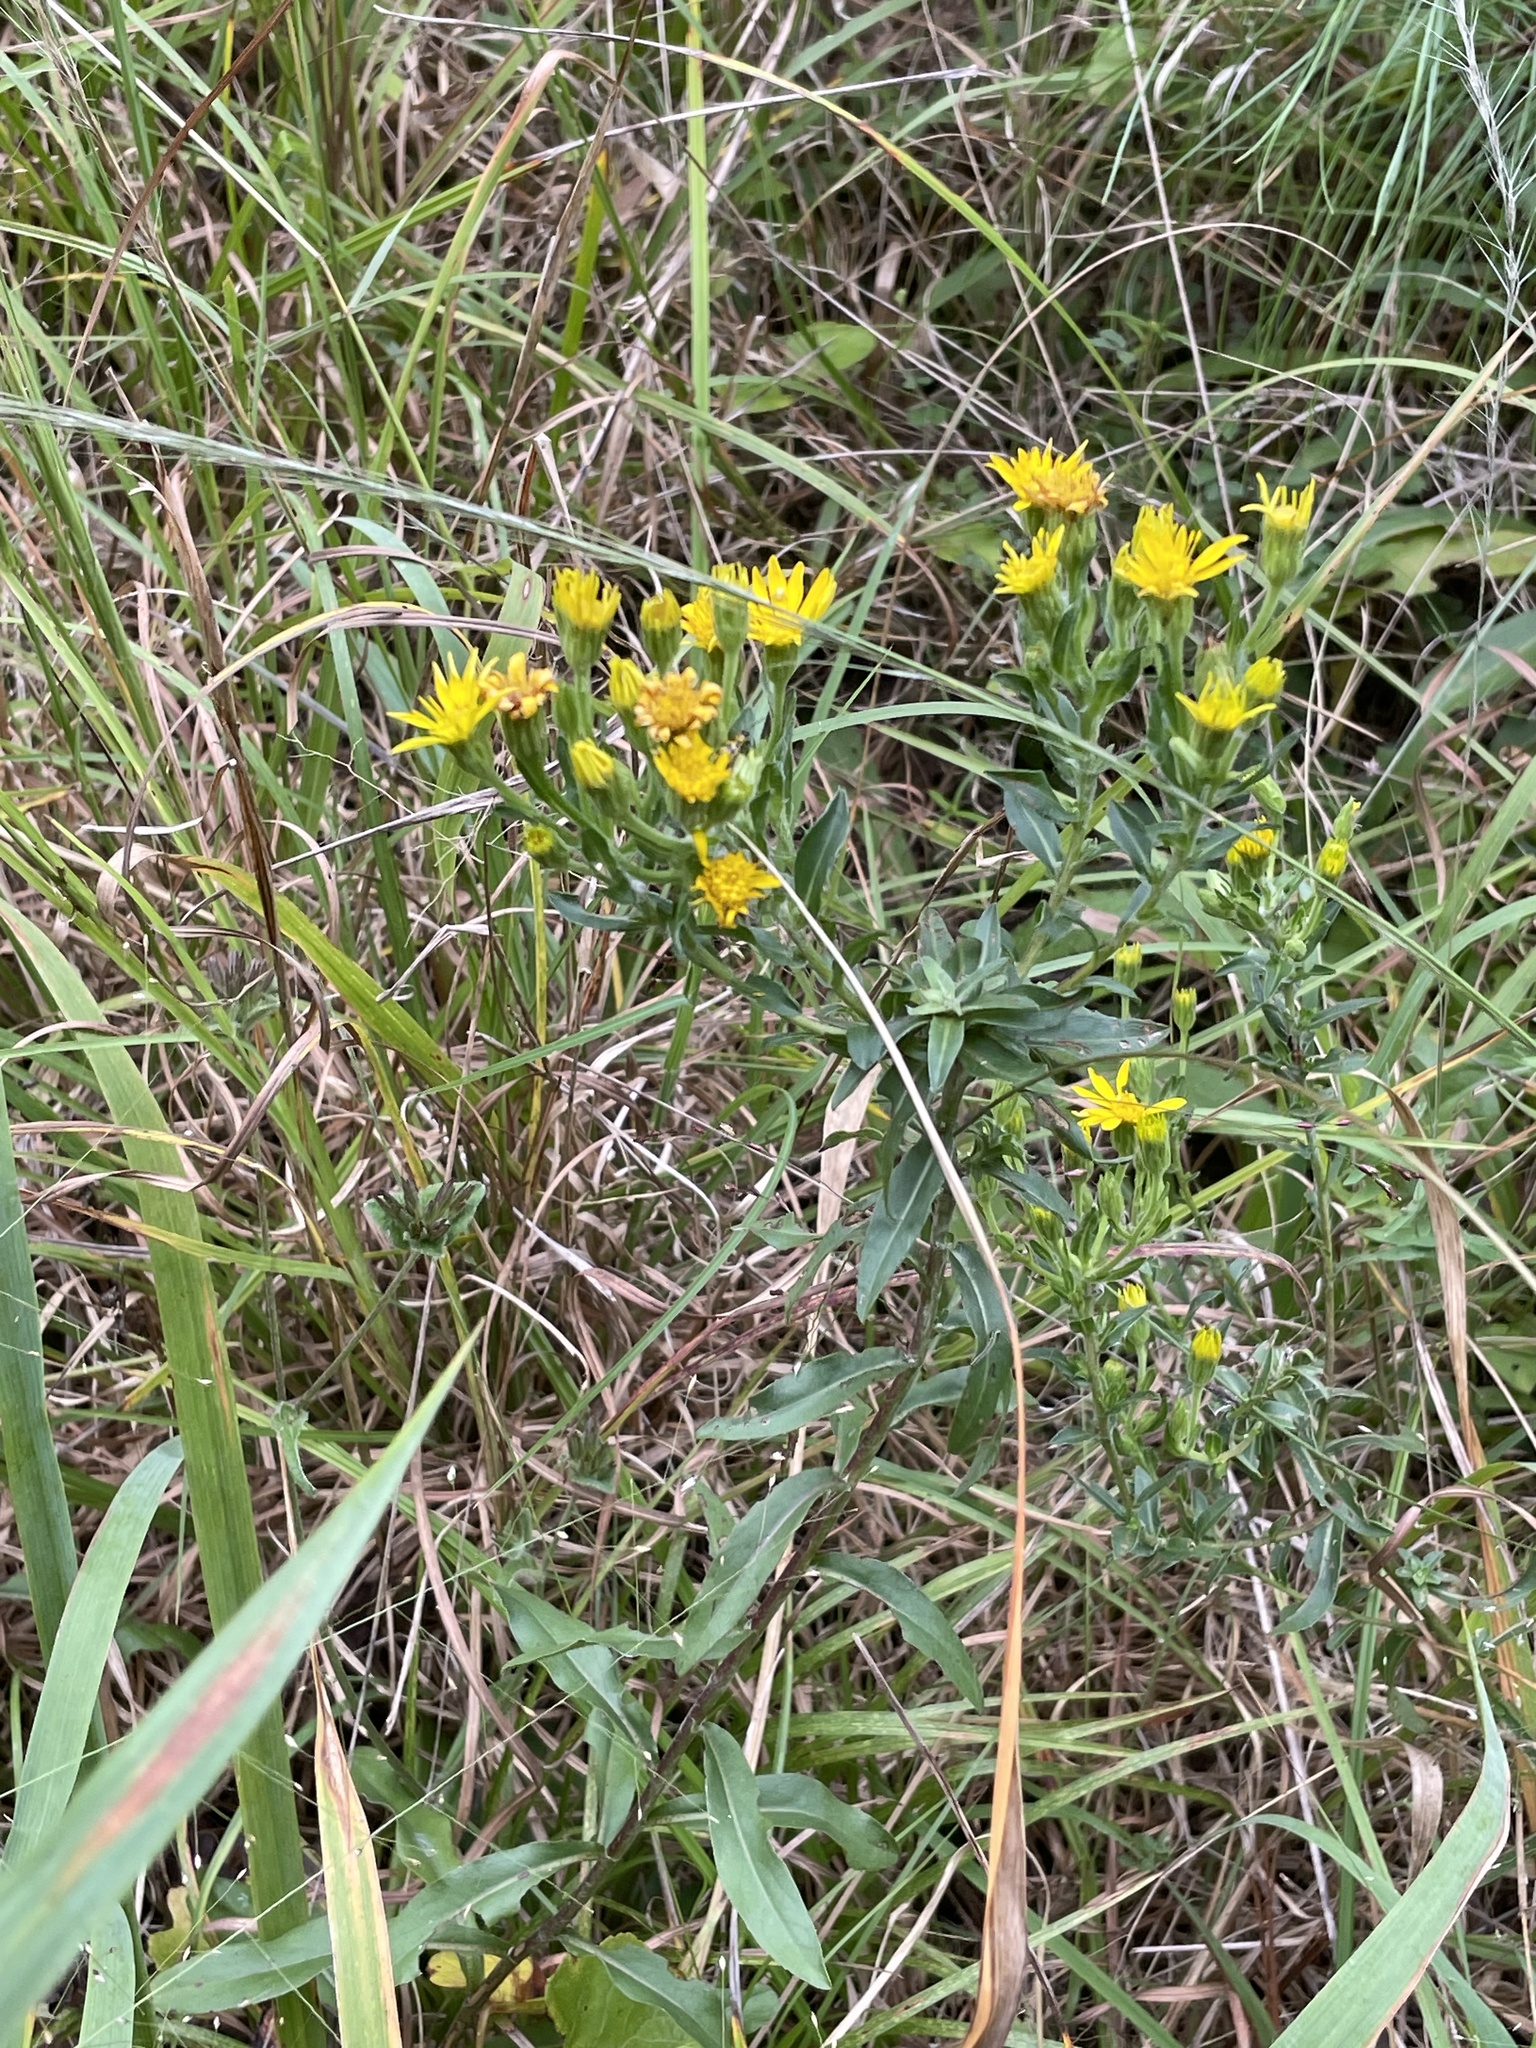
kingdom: Plantae
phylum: Tracheophyta
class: Magnoliopsida
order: Asterales
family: Asteraceae
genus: Chrysopsis
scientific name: Chrysopsis mariana
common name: Maryland golden-aster
